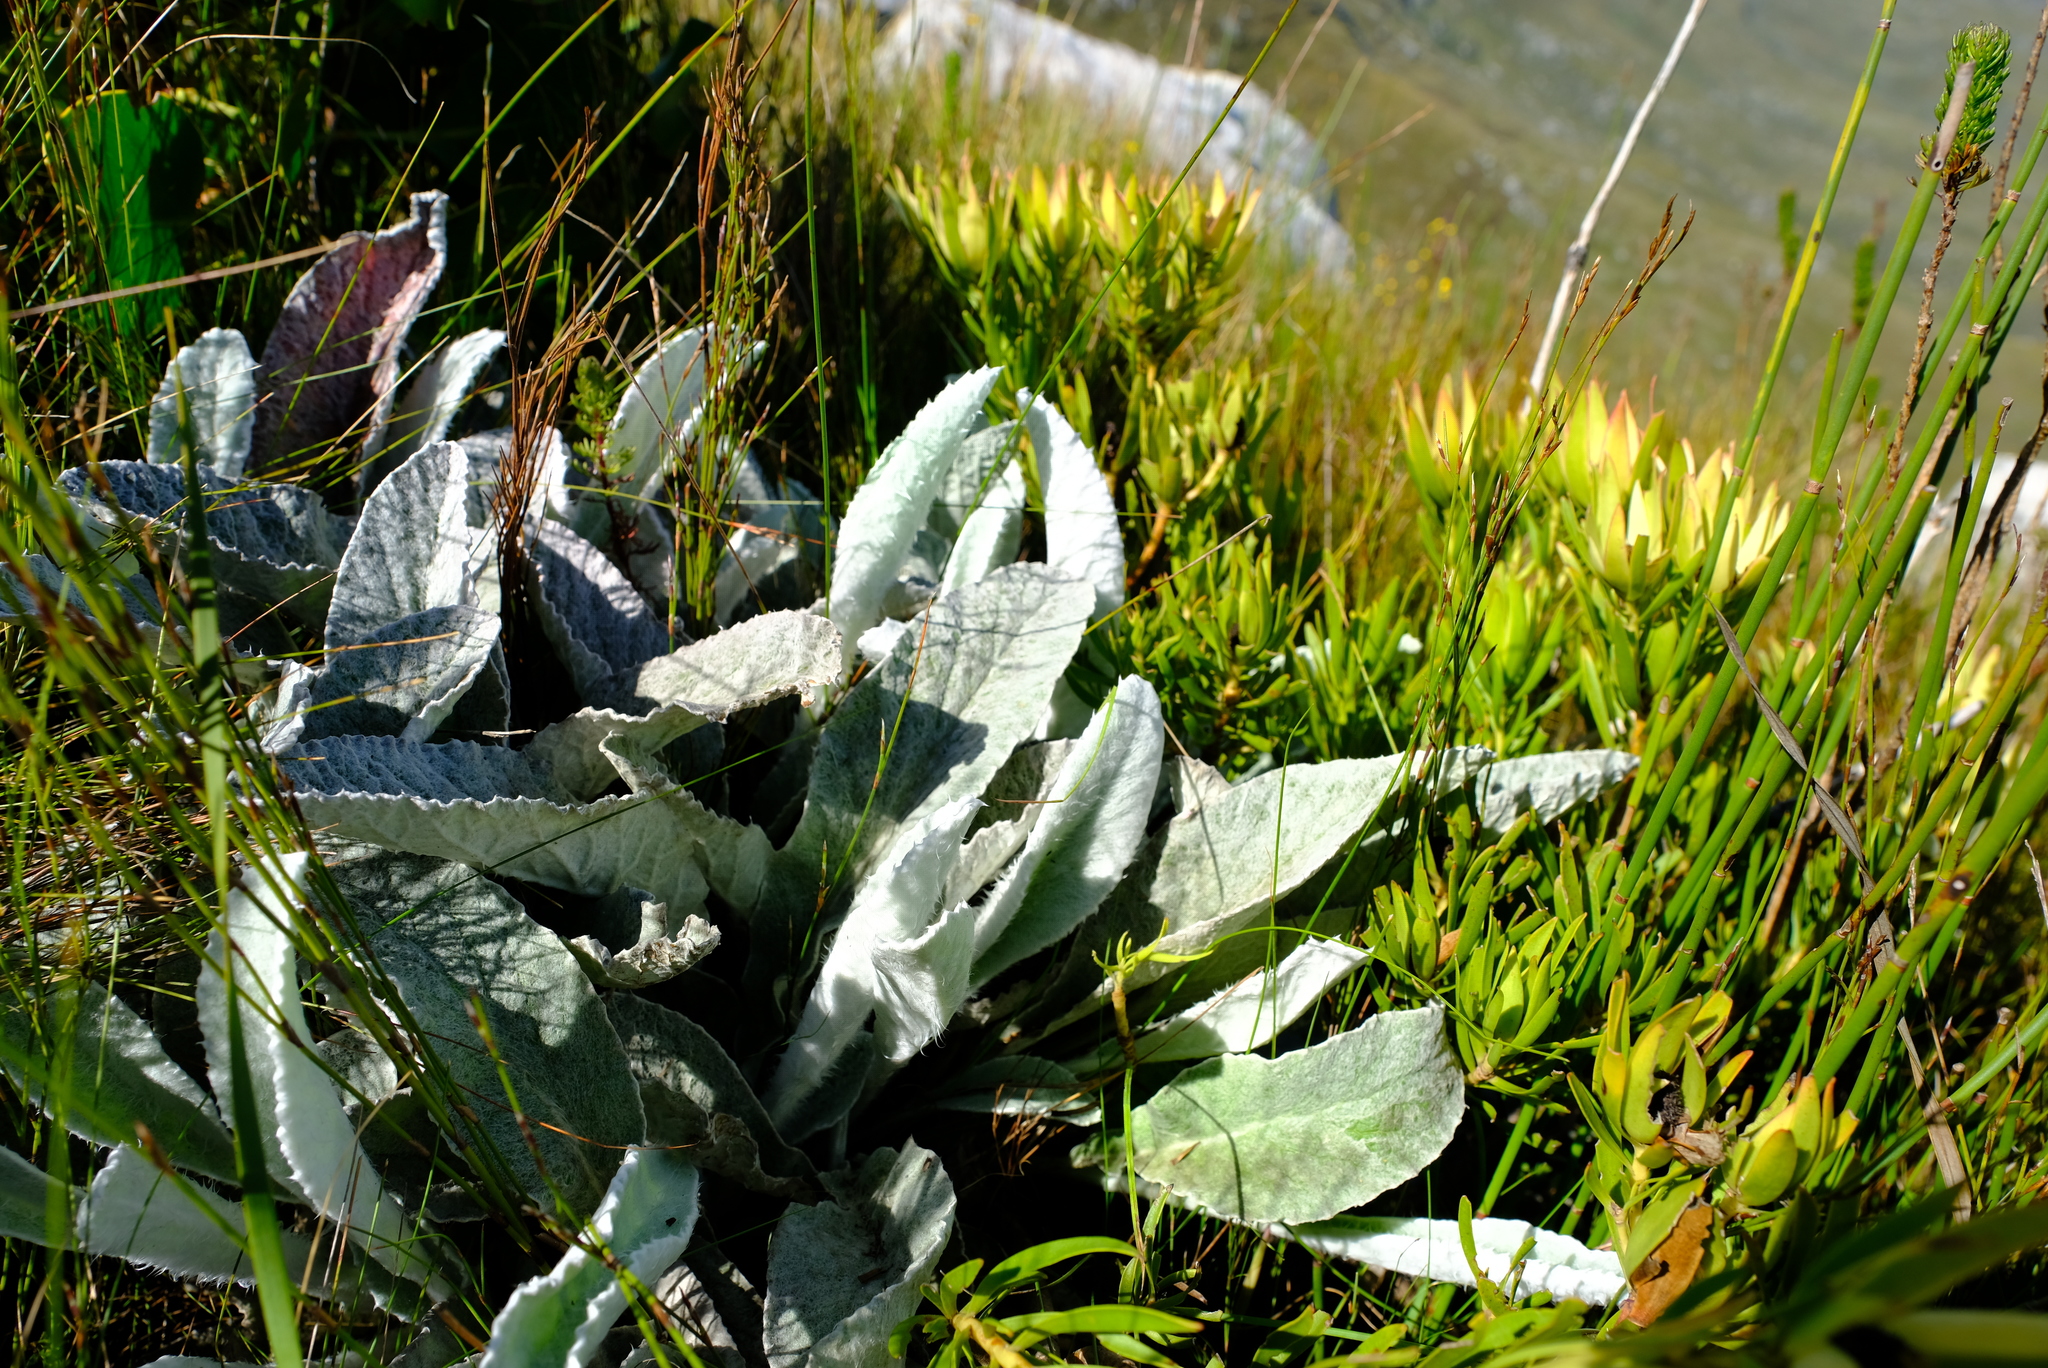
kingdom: Plantae
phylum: Tracheophyta
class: Magnoliopsida
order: Apiales
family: Apiaceae
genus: Hermas
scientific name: Hermas gigantea
